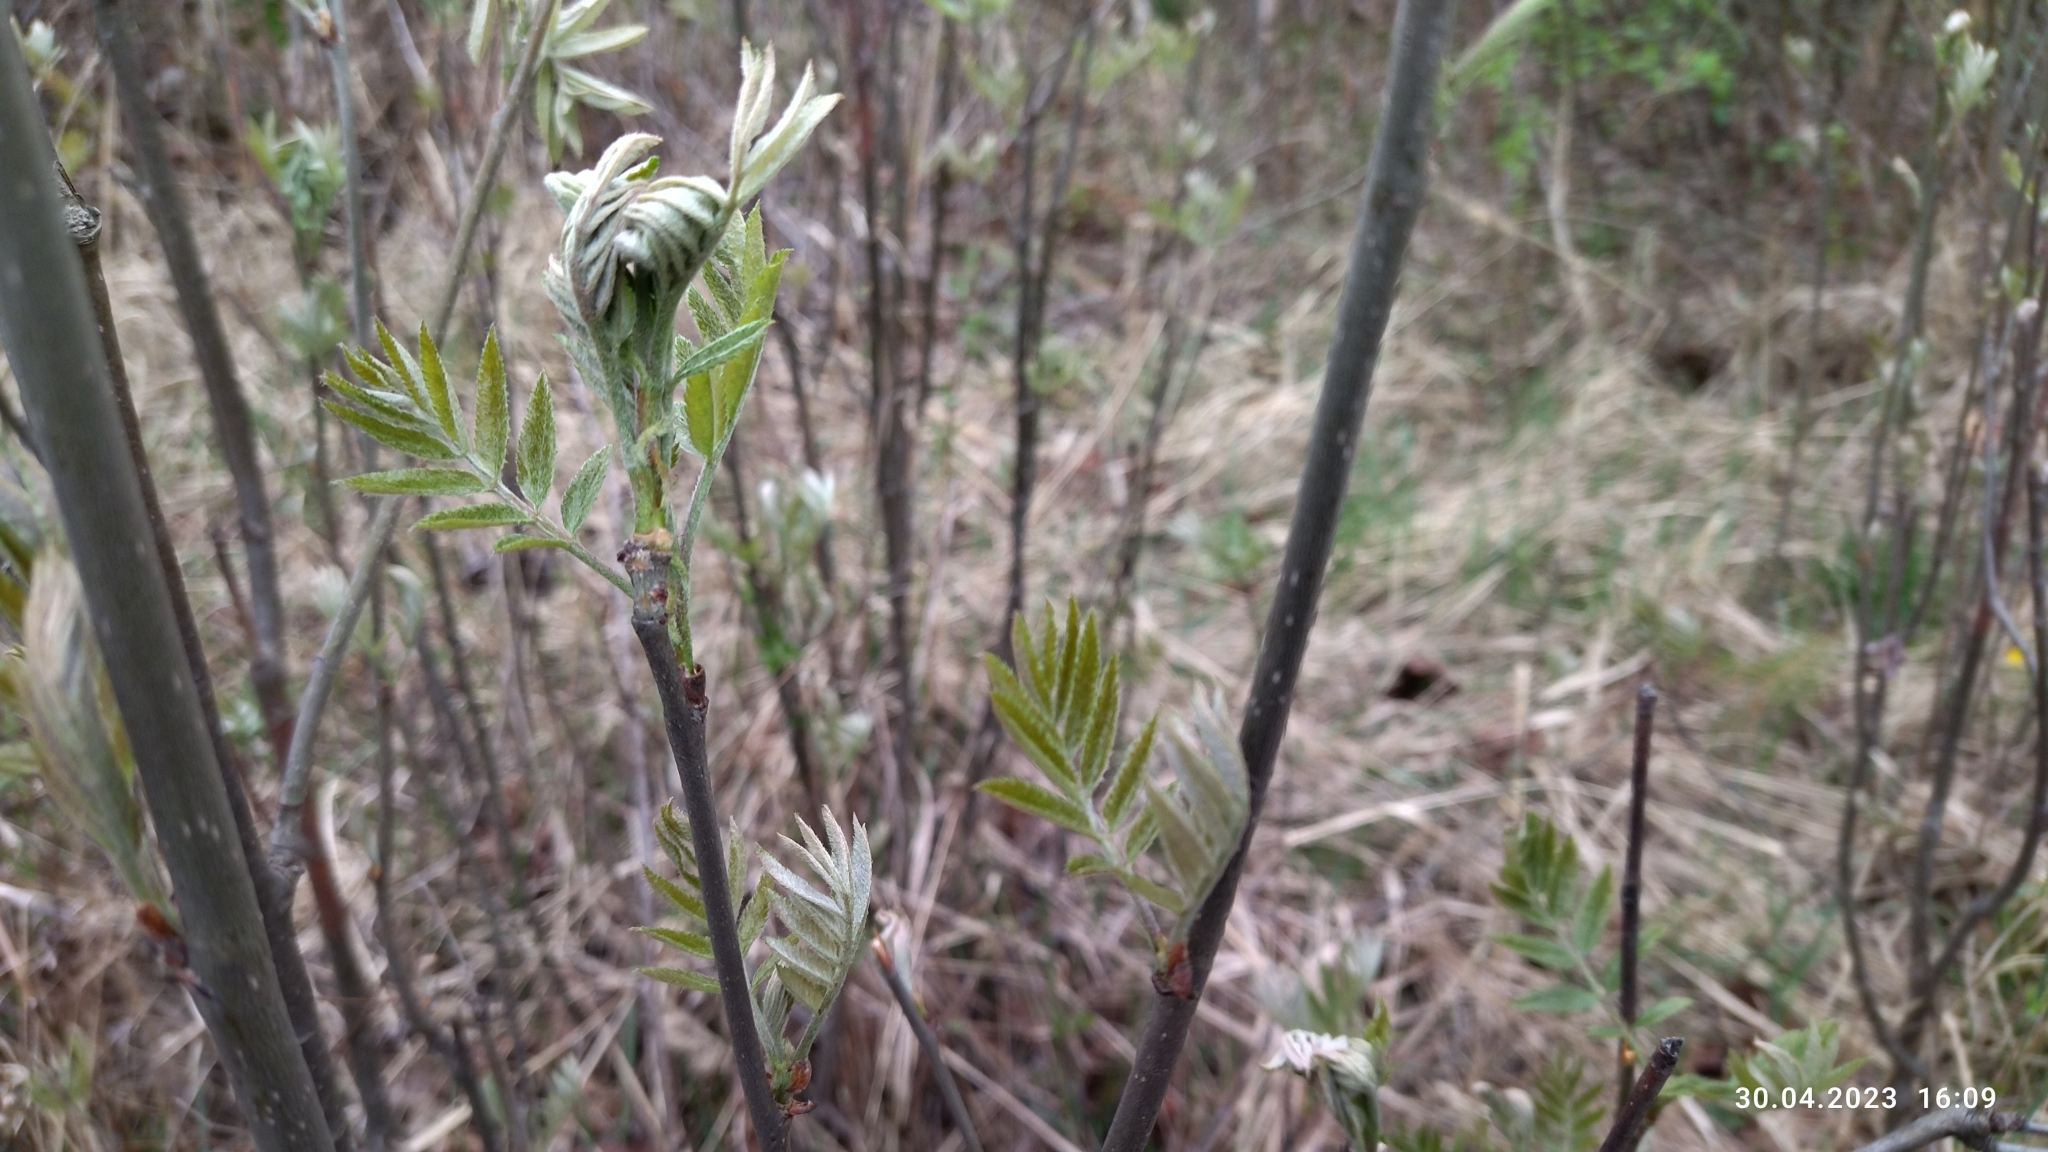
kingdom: Plantae
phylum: Tracheophyta
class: Magnoliopsida
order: Rosales
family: Rosaceae
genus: Sorbus
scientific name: Sorbus aucuparia
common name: Rowan
